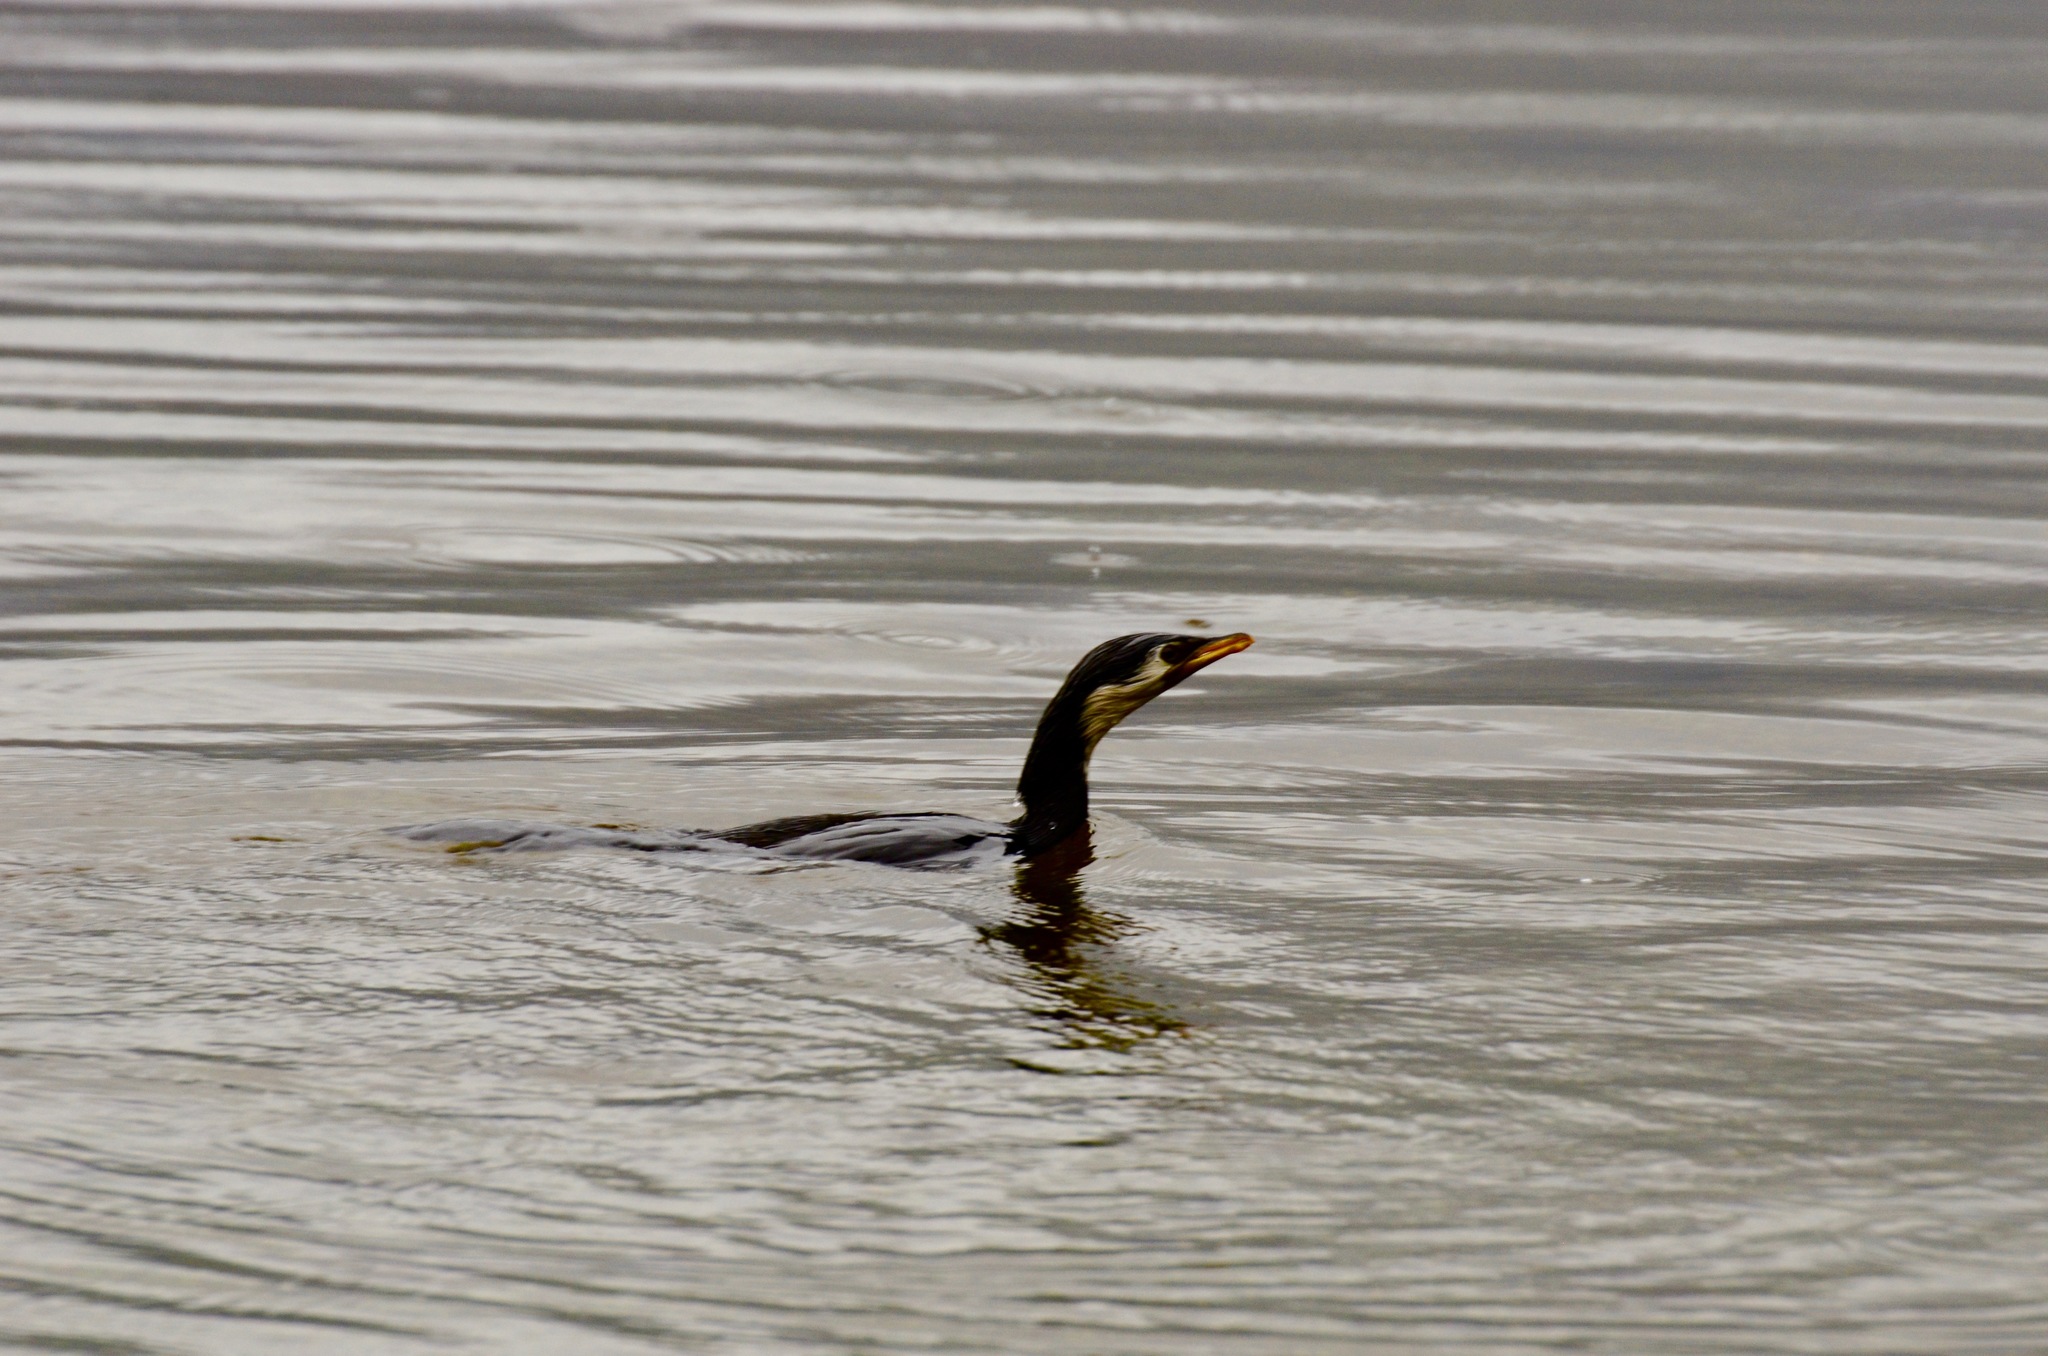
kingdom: Animalia
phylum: Chordata
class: Aves
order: Suliformes
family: Phalacrocoracidae
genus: Microcarbo
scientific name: Microcarbo melanoleucos
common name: Little pied cormorant
